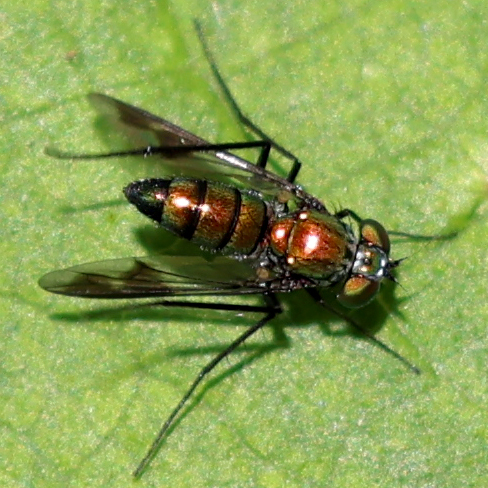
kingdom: Animalia
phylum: Arthropoda
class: Insecta
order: Diptera
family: Dolichopodidae
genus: Condylostylus
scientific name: Condylostylus patibulatus
